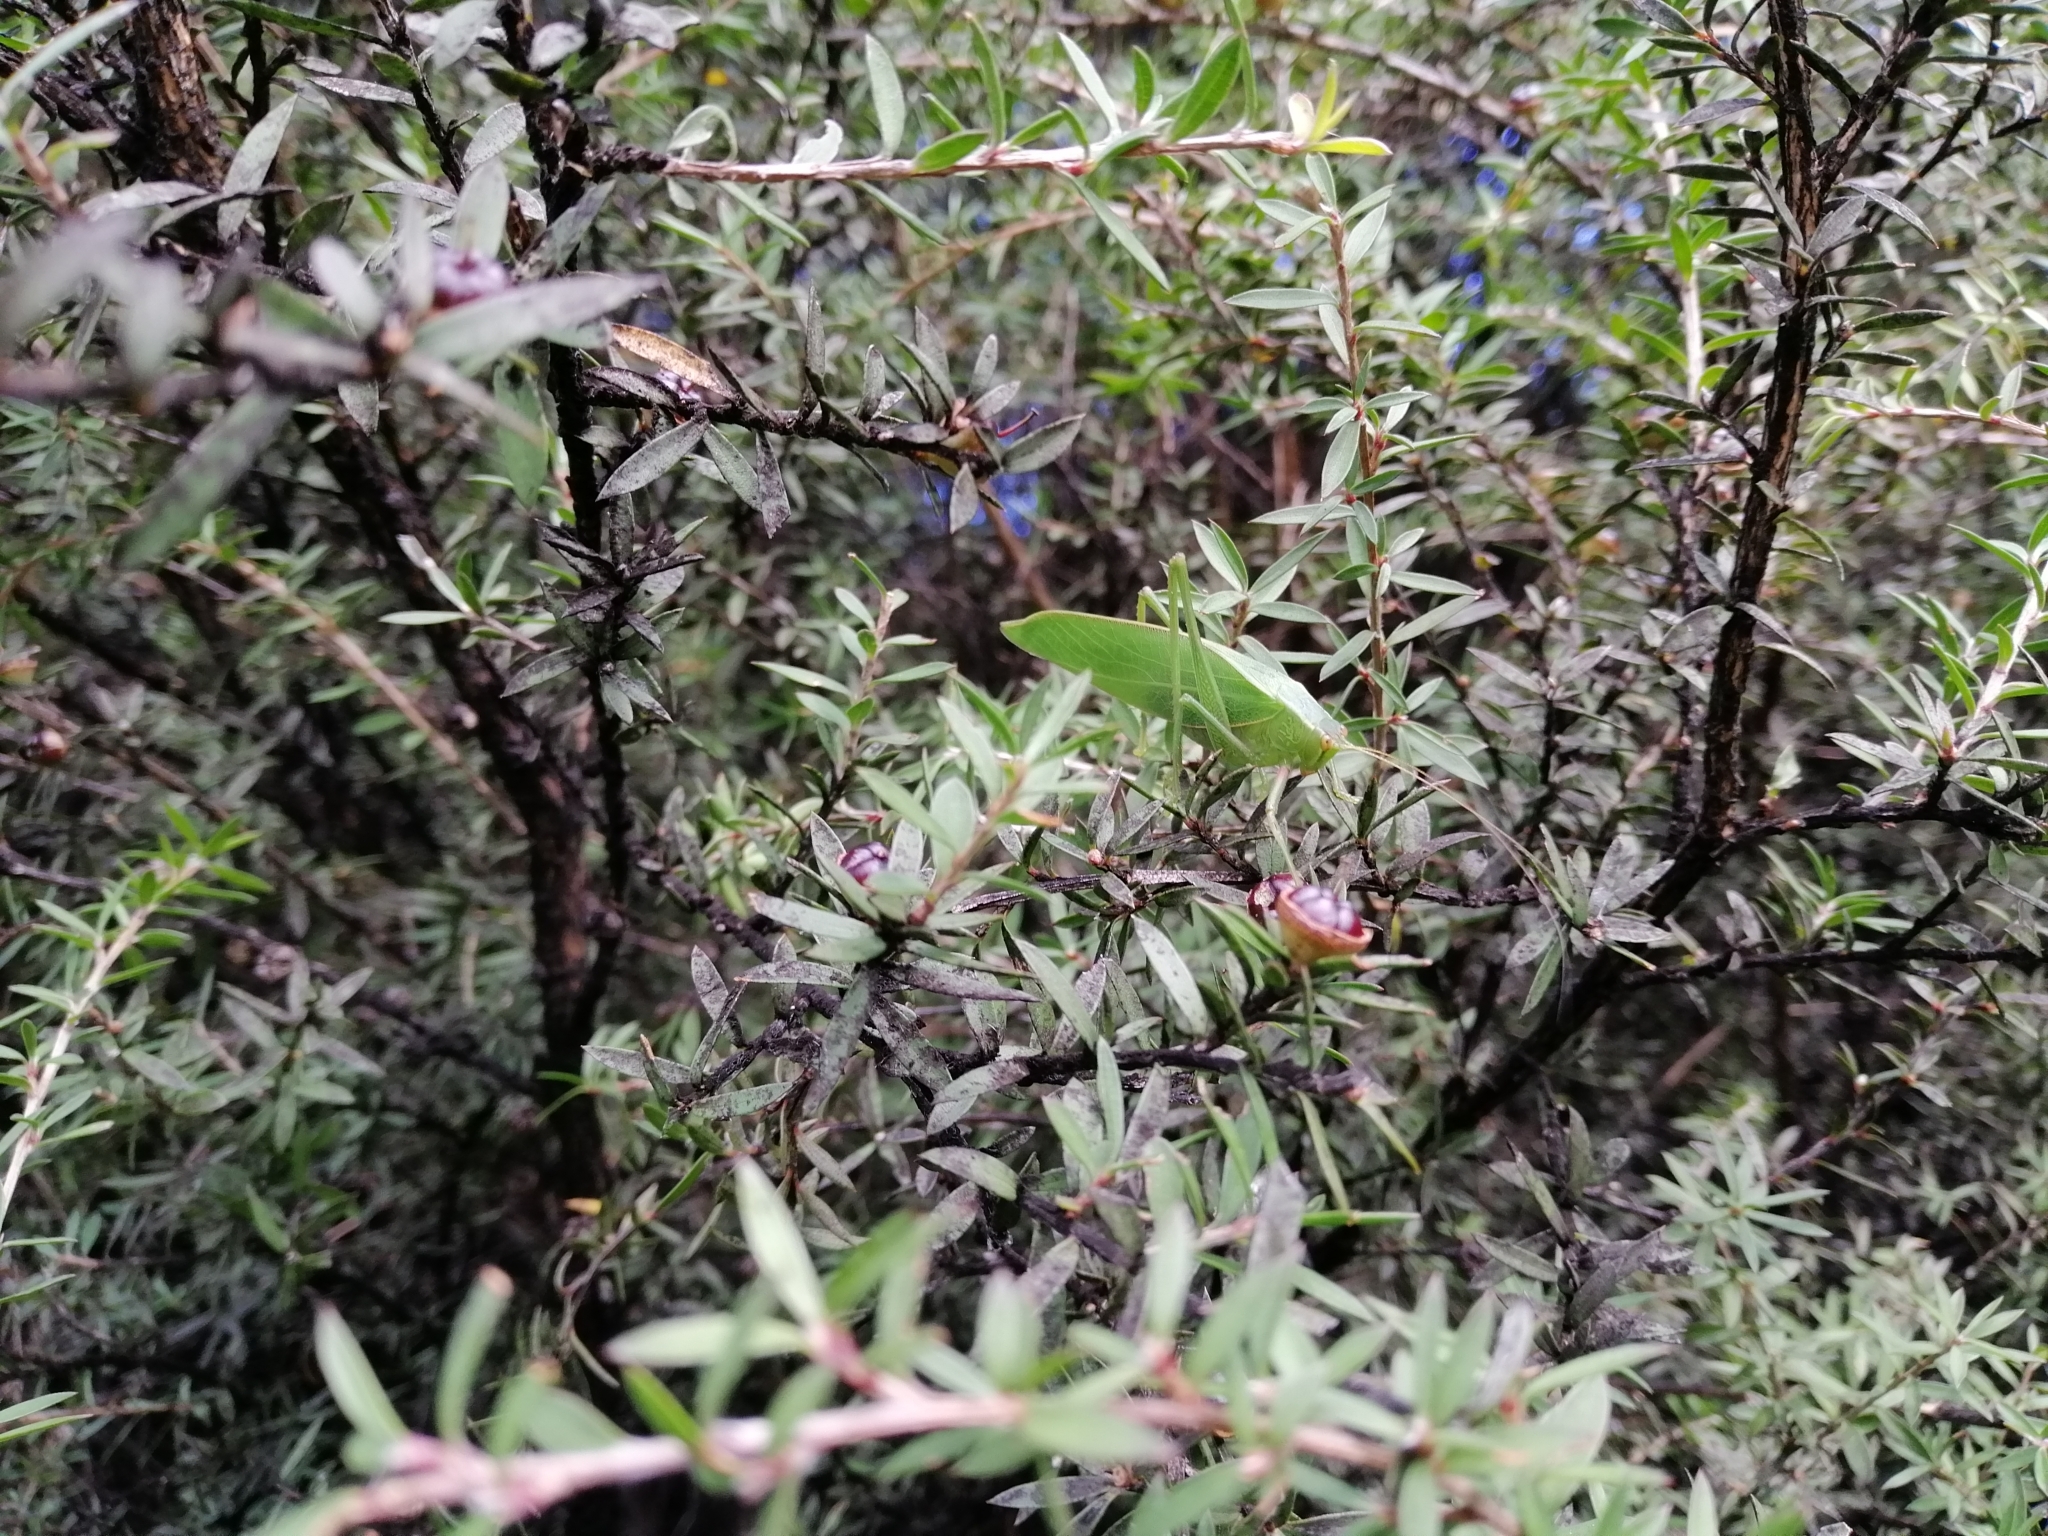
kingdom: Animalia
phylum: Arthropoda
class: Insecta
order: Orthoptera
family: Tettigoniidae
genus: Caedicia
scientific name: Caedicia simplex
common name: Common garden katydid
